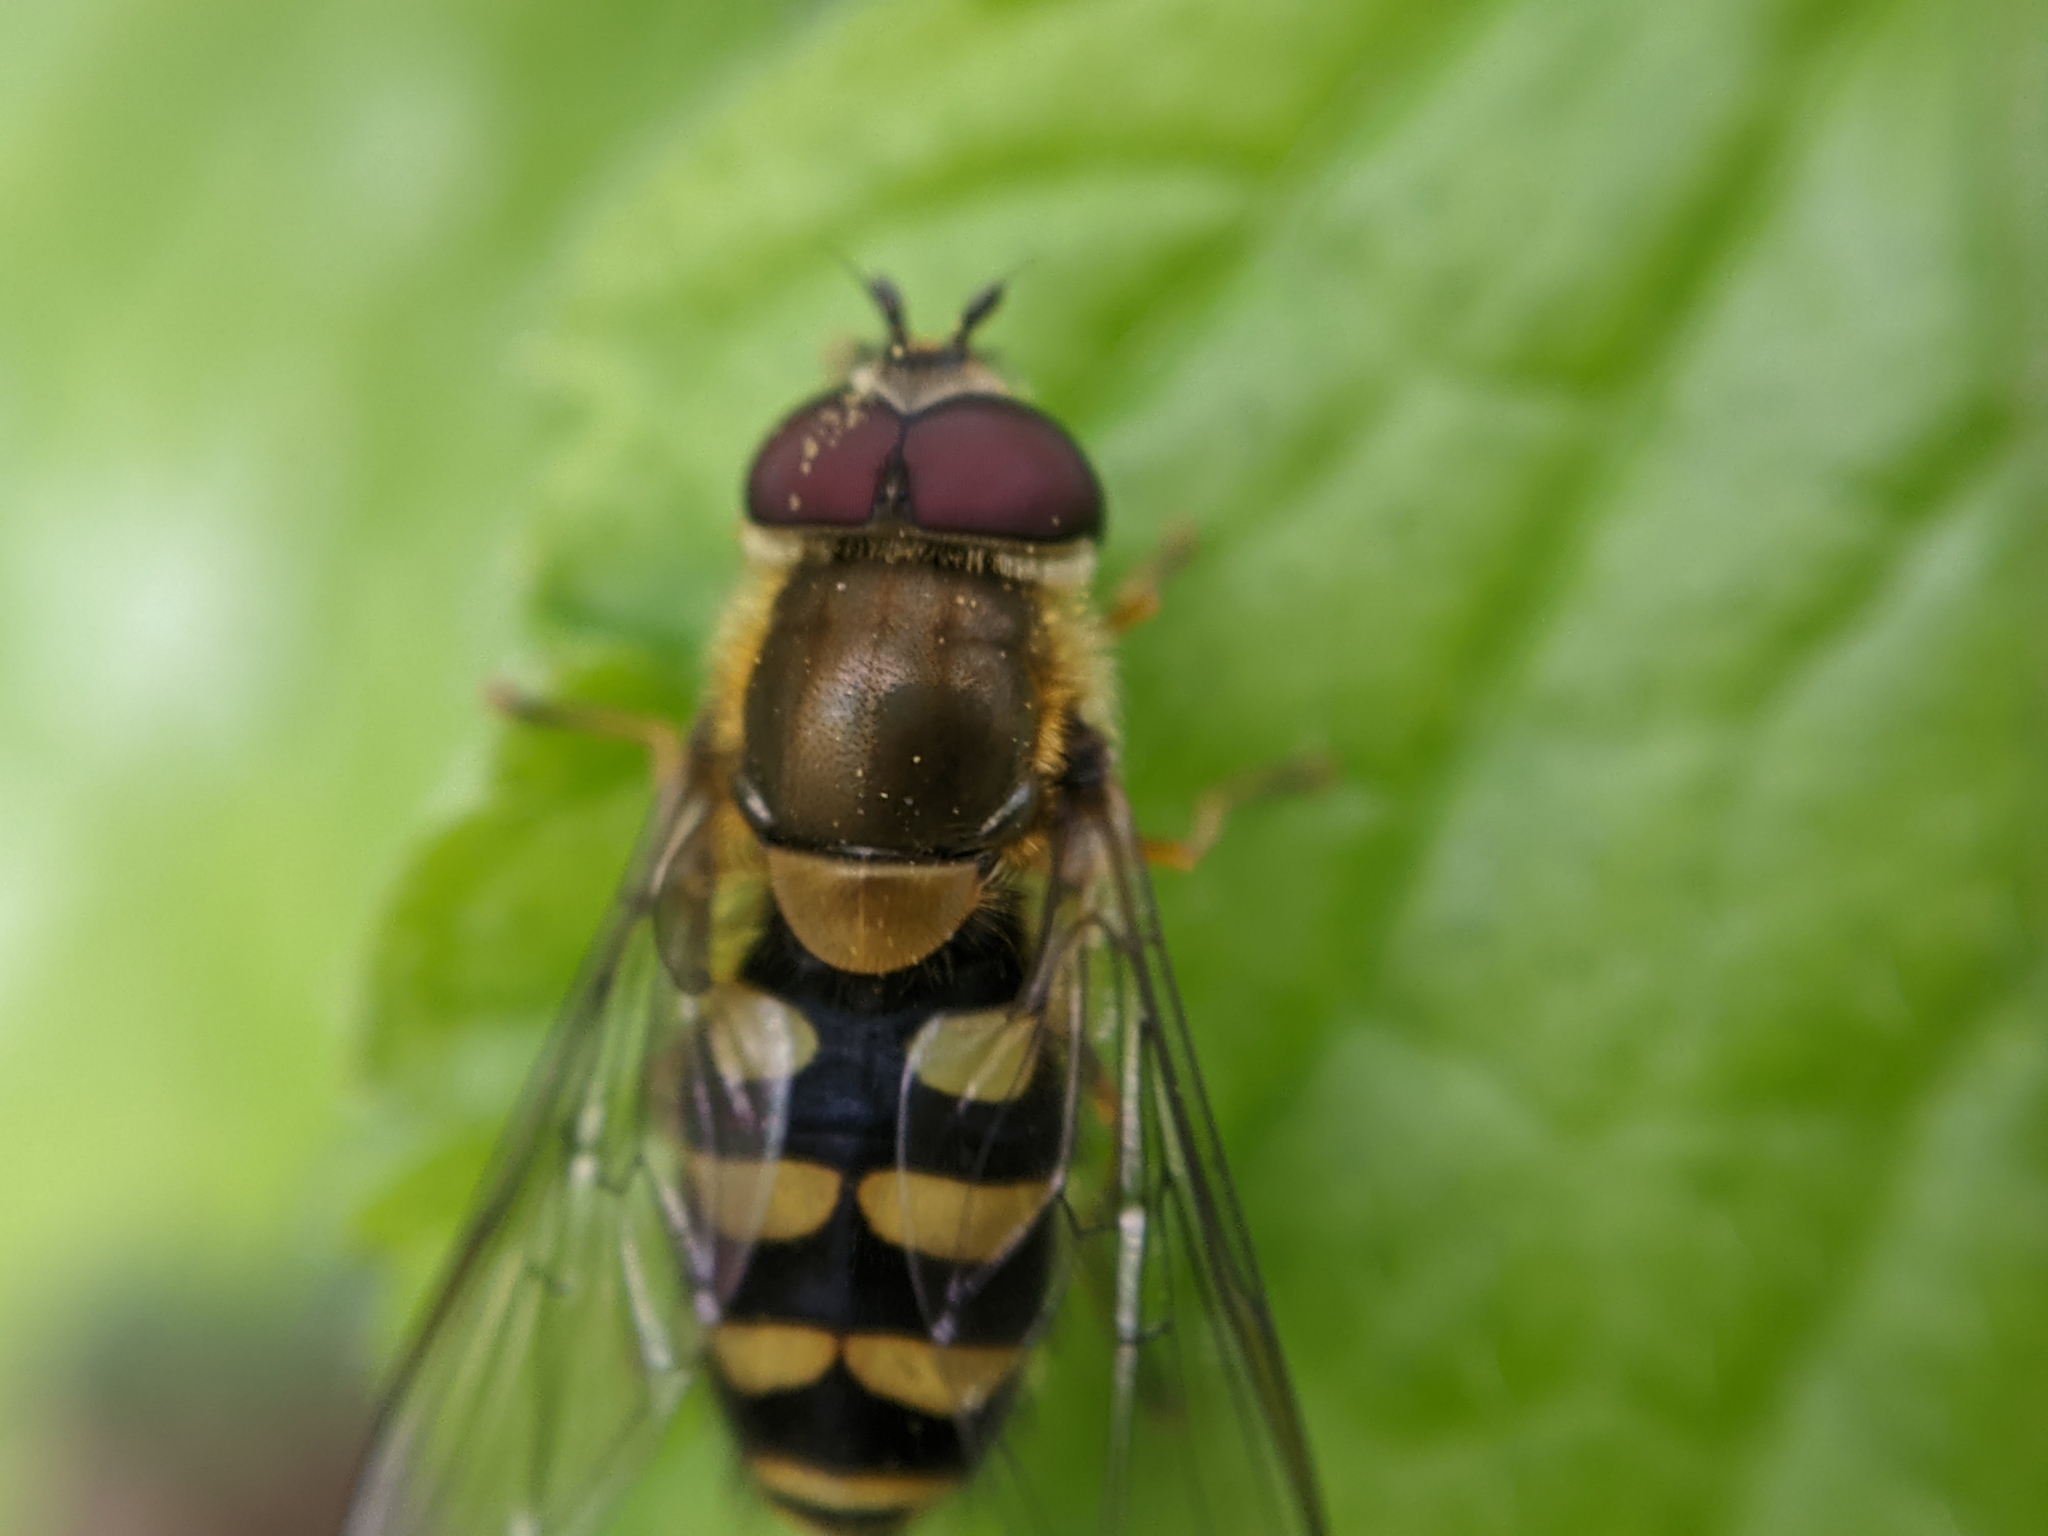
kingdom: Animalia
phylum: Arthropoda
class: Insecta
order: Diptera
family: Syrphidae
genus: Syrphus
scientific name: Syrphus
